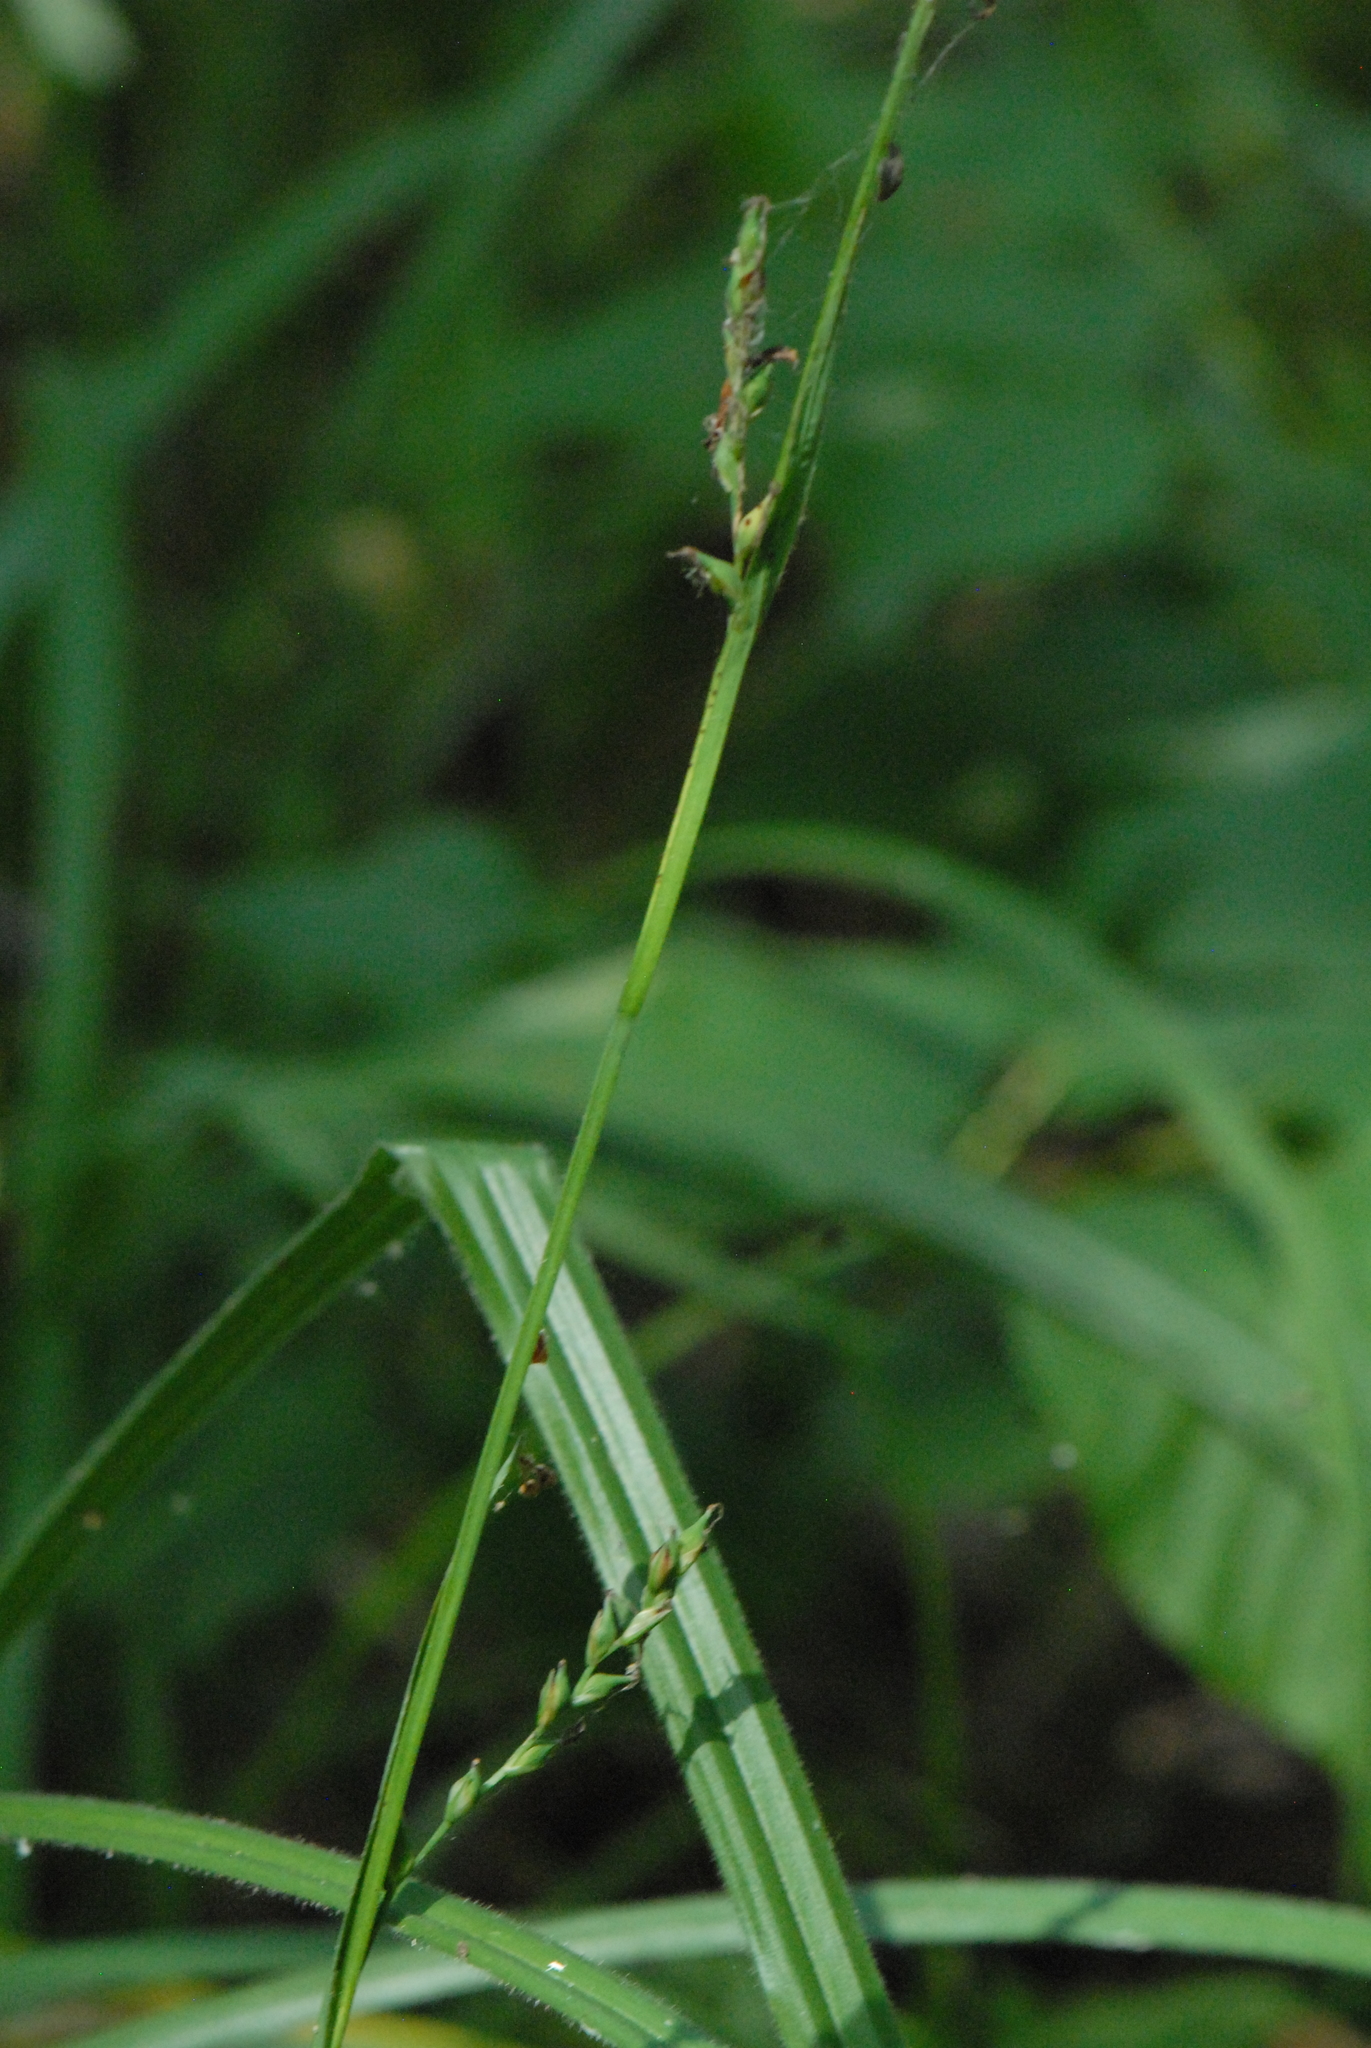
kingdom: Plantae
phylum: Tracheophyta
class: Liliopsida
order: Poales
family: Cyperaceae
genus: Carex
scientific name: Carex pilosa
